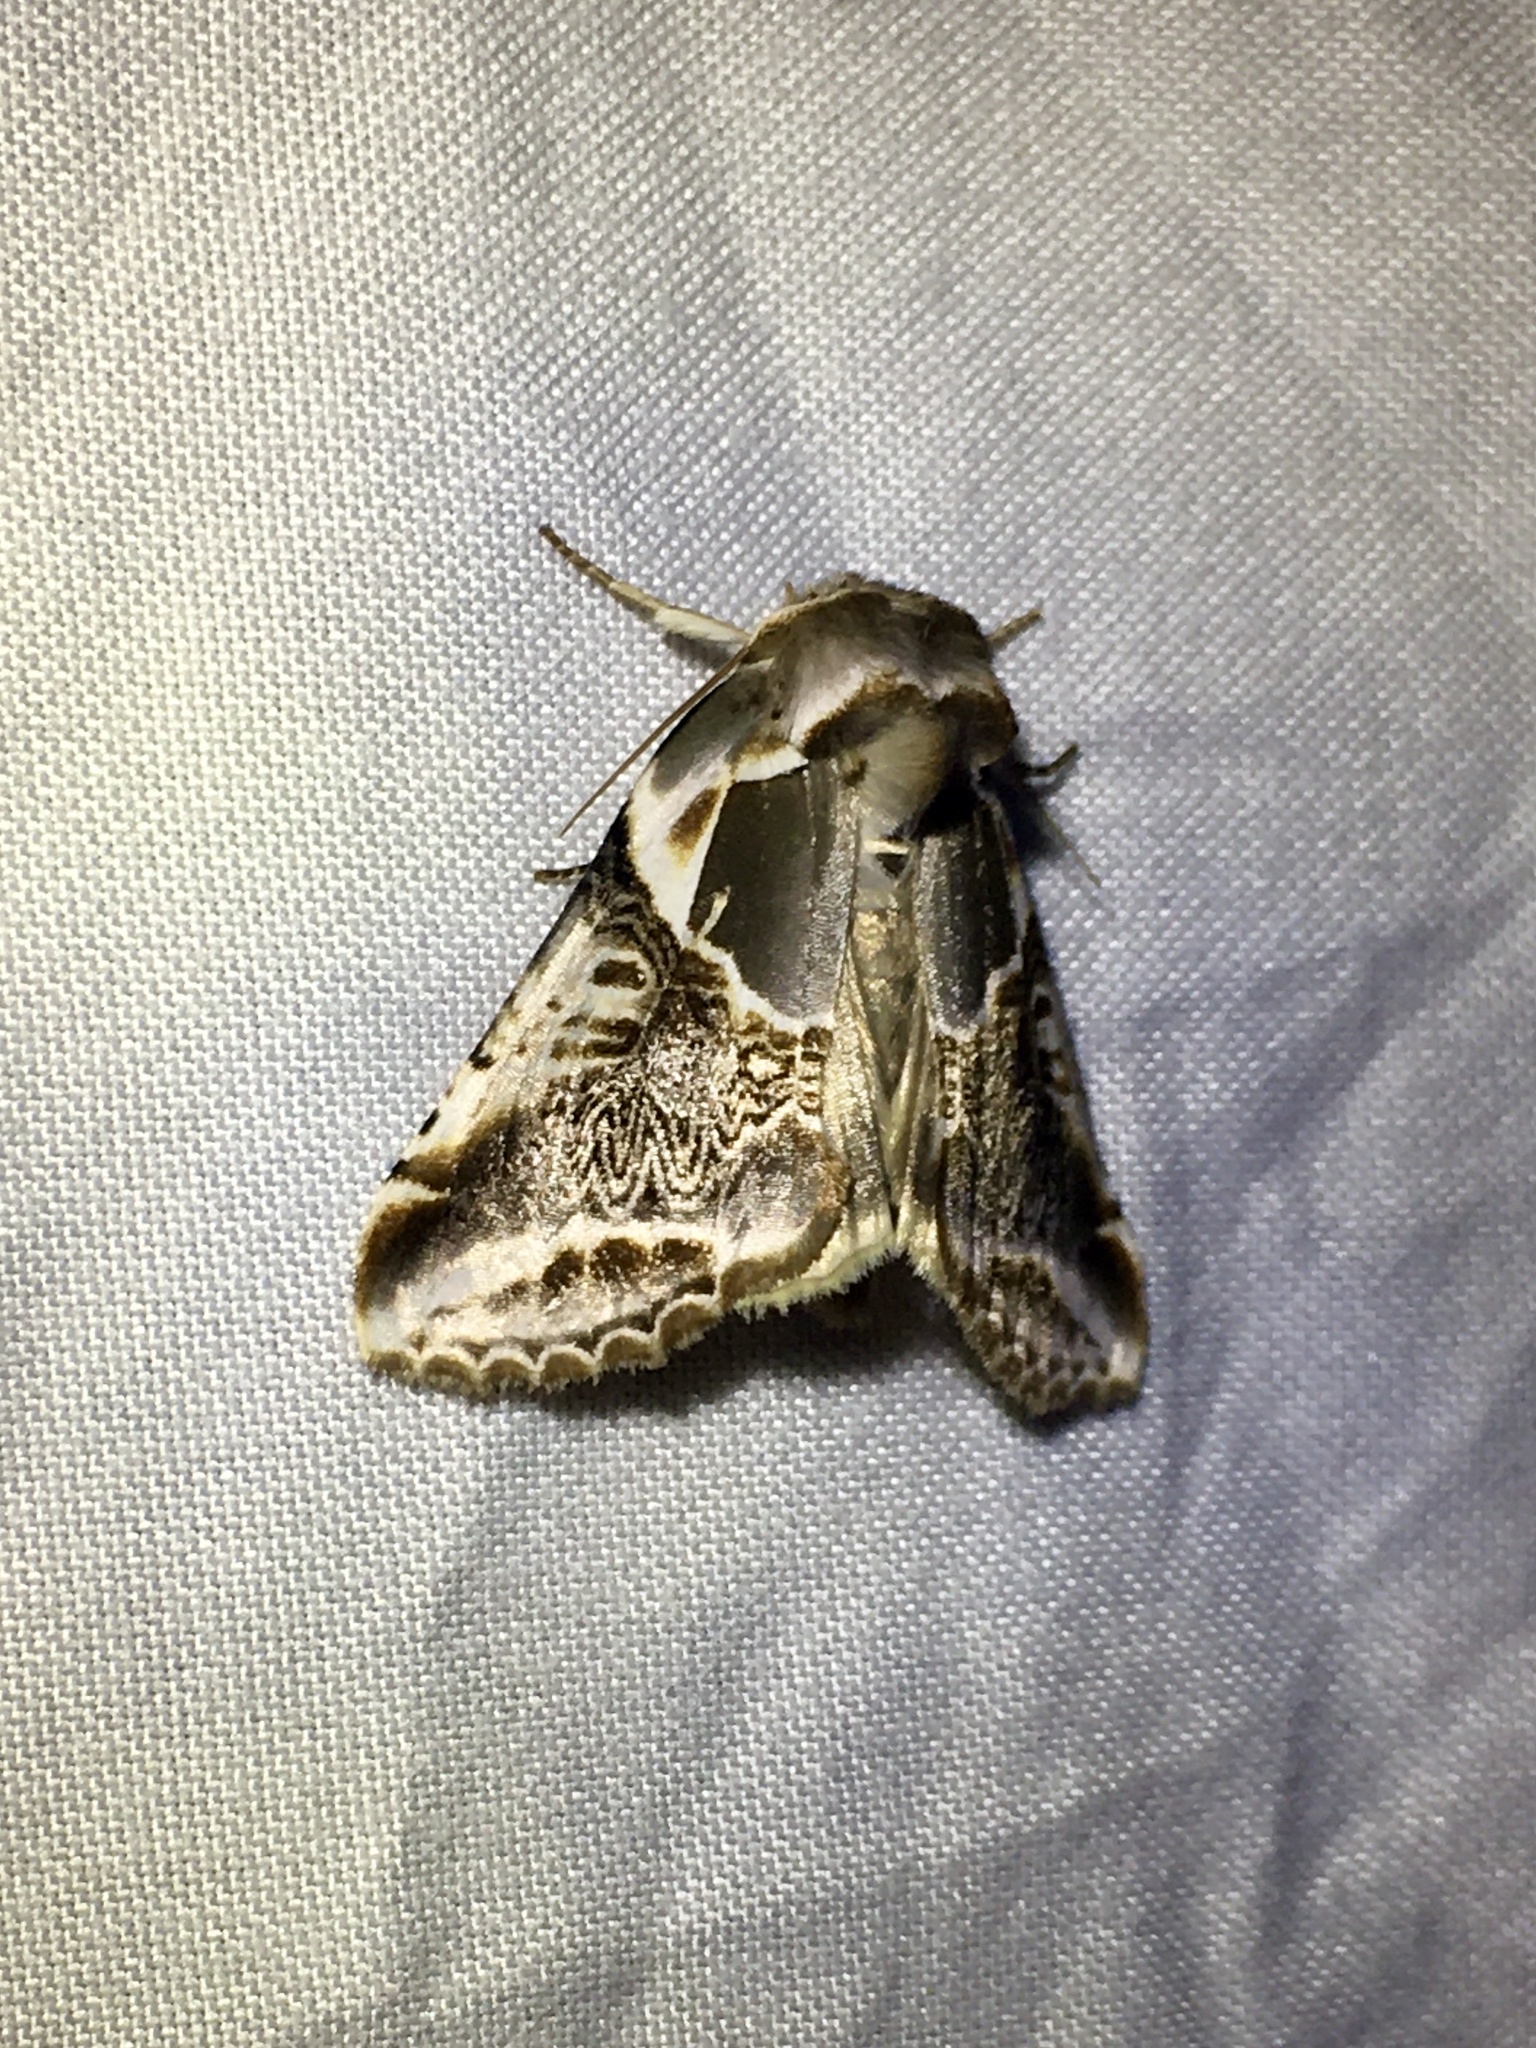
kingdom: Animalia
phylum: Arthropoda
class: Insecta
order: Lepidoptera
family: Drepanidae
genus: Habrosyne
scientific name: Habrosyne scripta
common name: Lettered habrosyne moth
